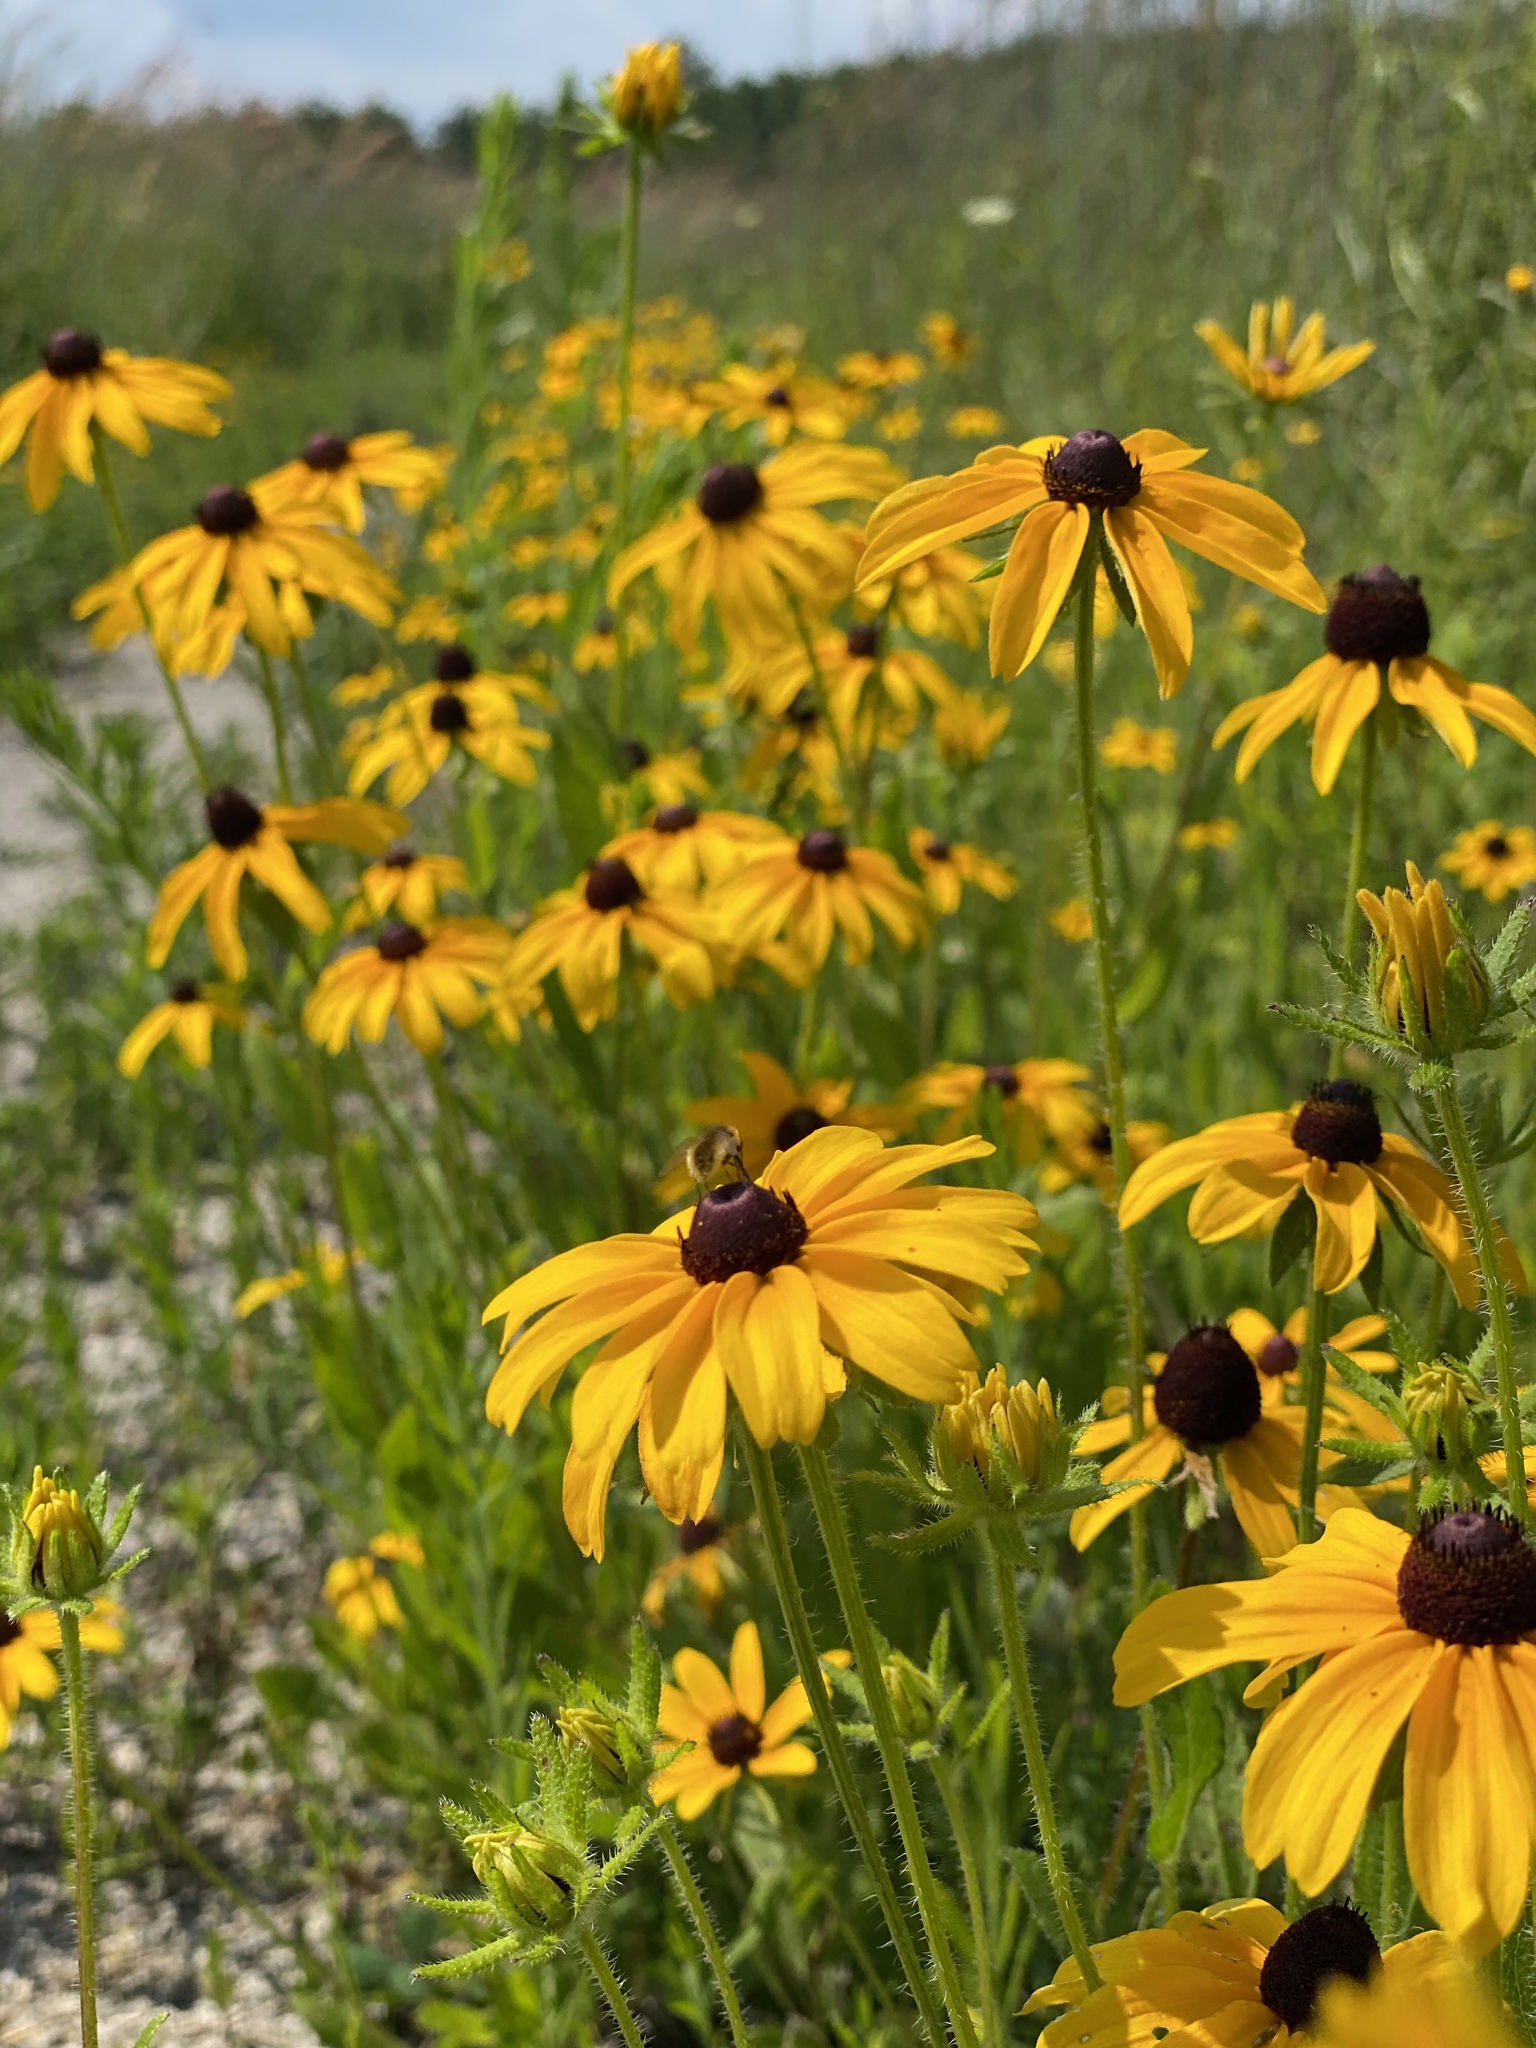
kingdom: Plantae
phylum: Tracheophyta
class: Magnoliopsida
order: Asterales
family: Asteraceae
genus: Rudbeckia
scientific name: Rudbeckia hirta
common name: Black-eyed-susan
